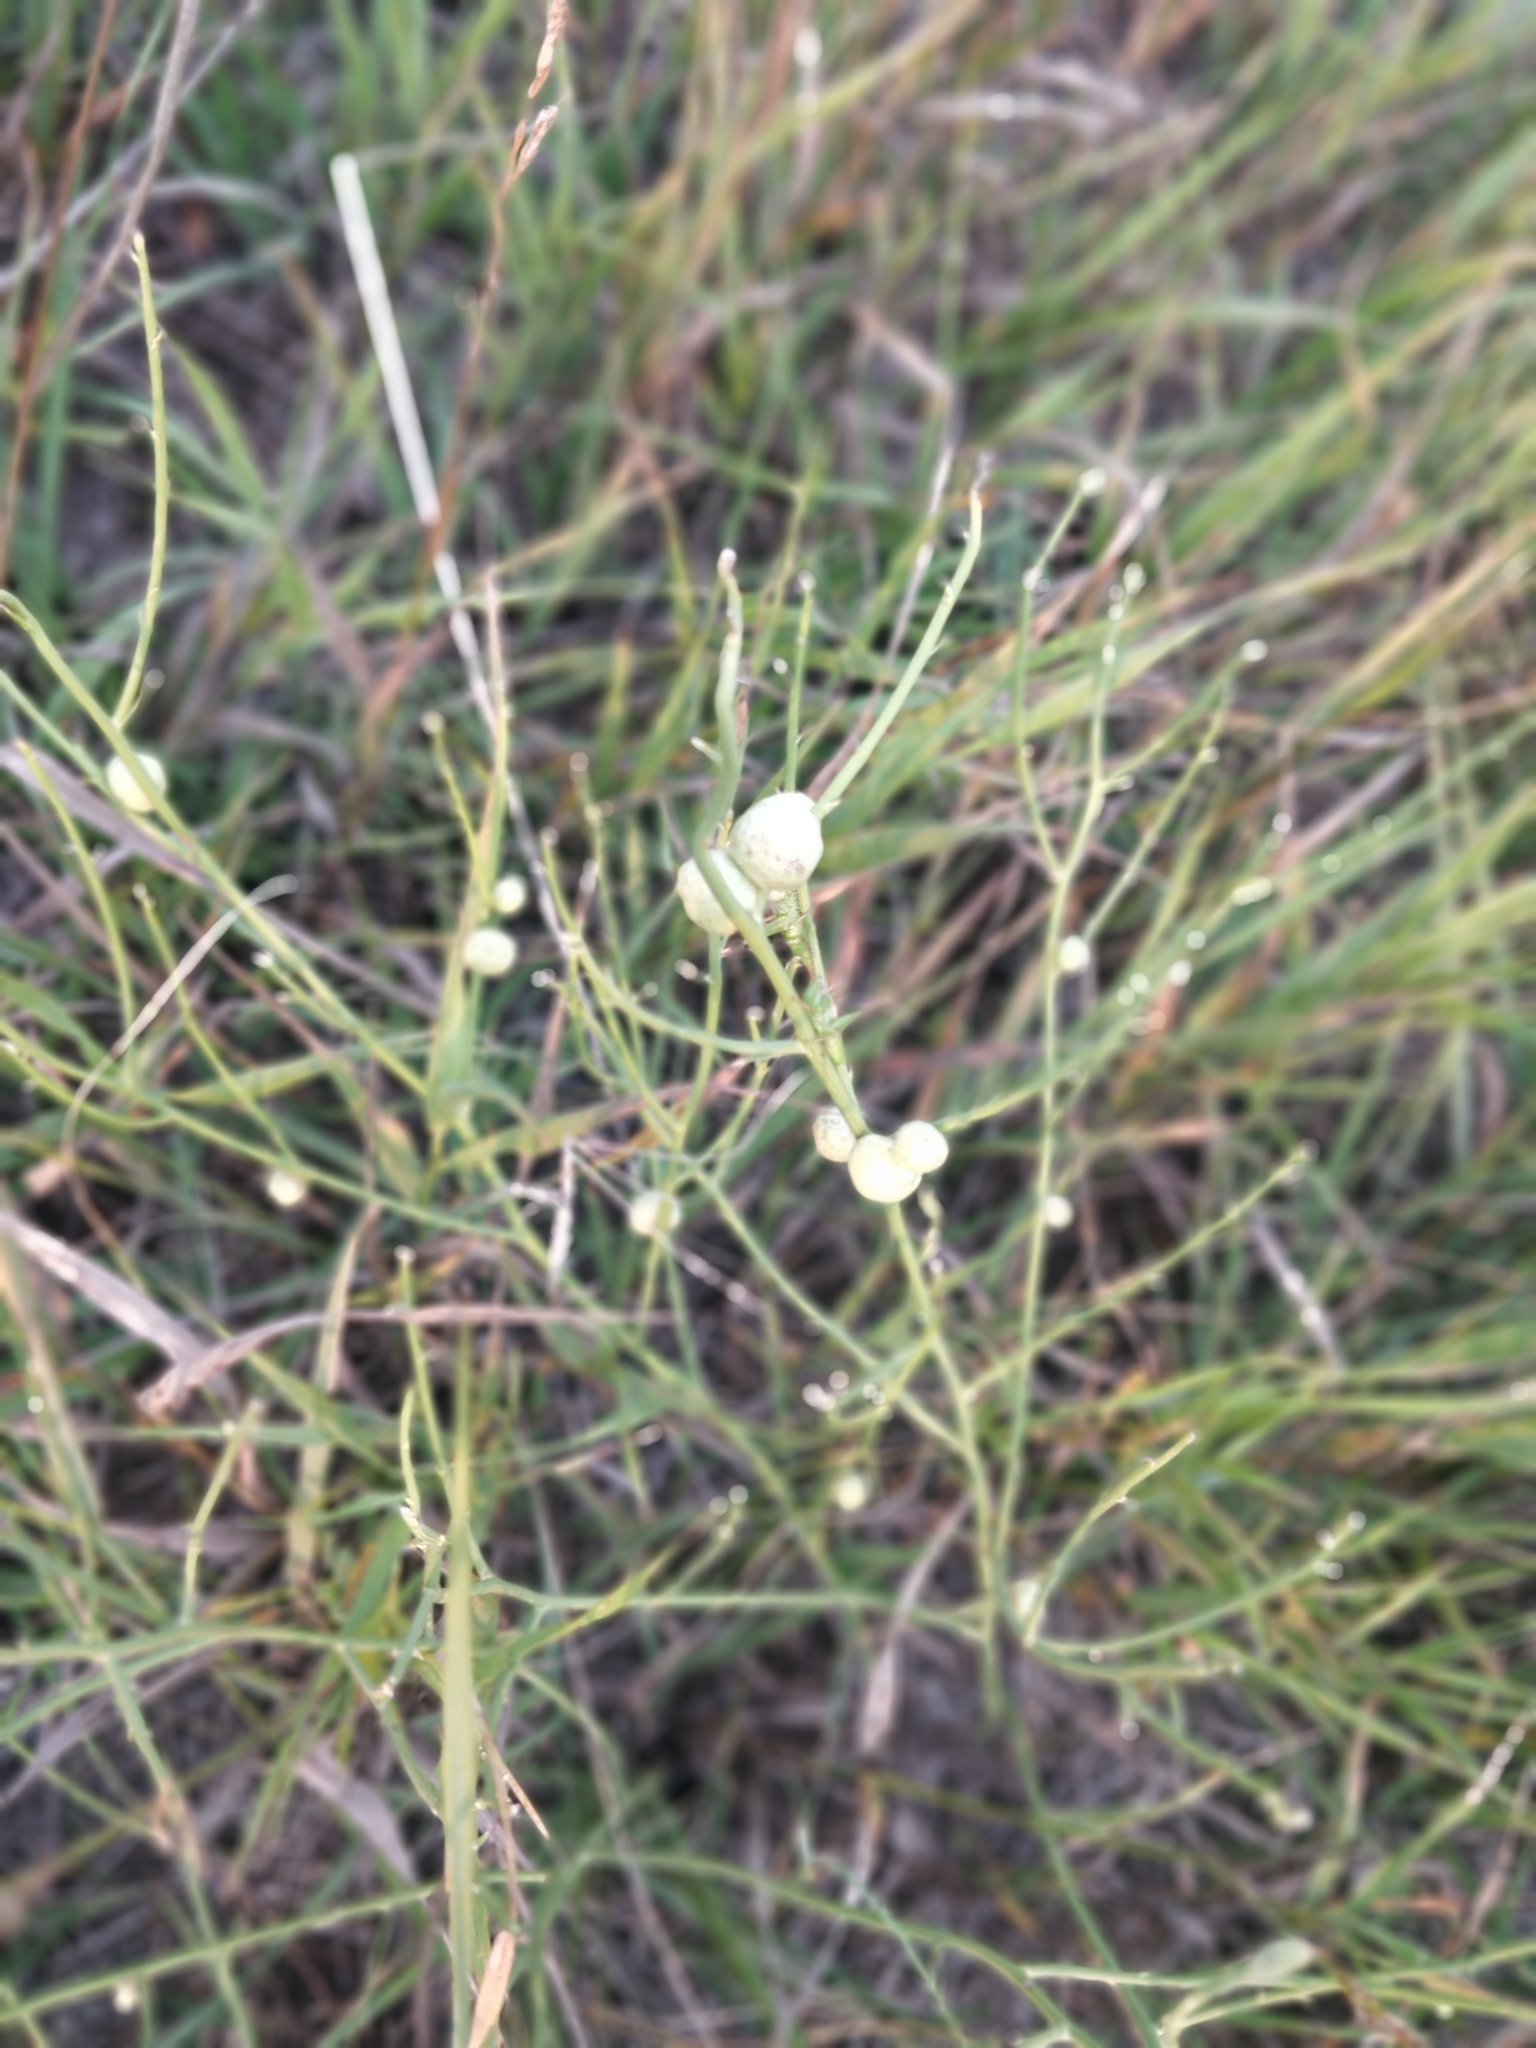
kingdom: Plantae
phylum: Tracheophyta
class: Magnoliopsida
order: Asterales
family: Asteraceae
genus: Lygodesmia
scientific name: Lygodesmia juncea
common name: Common skeletonweed
